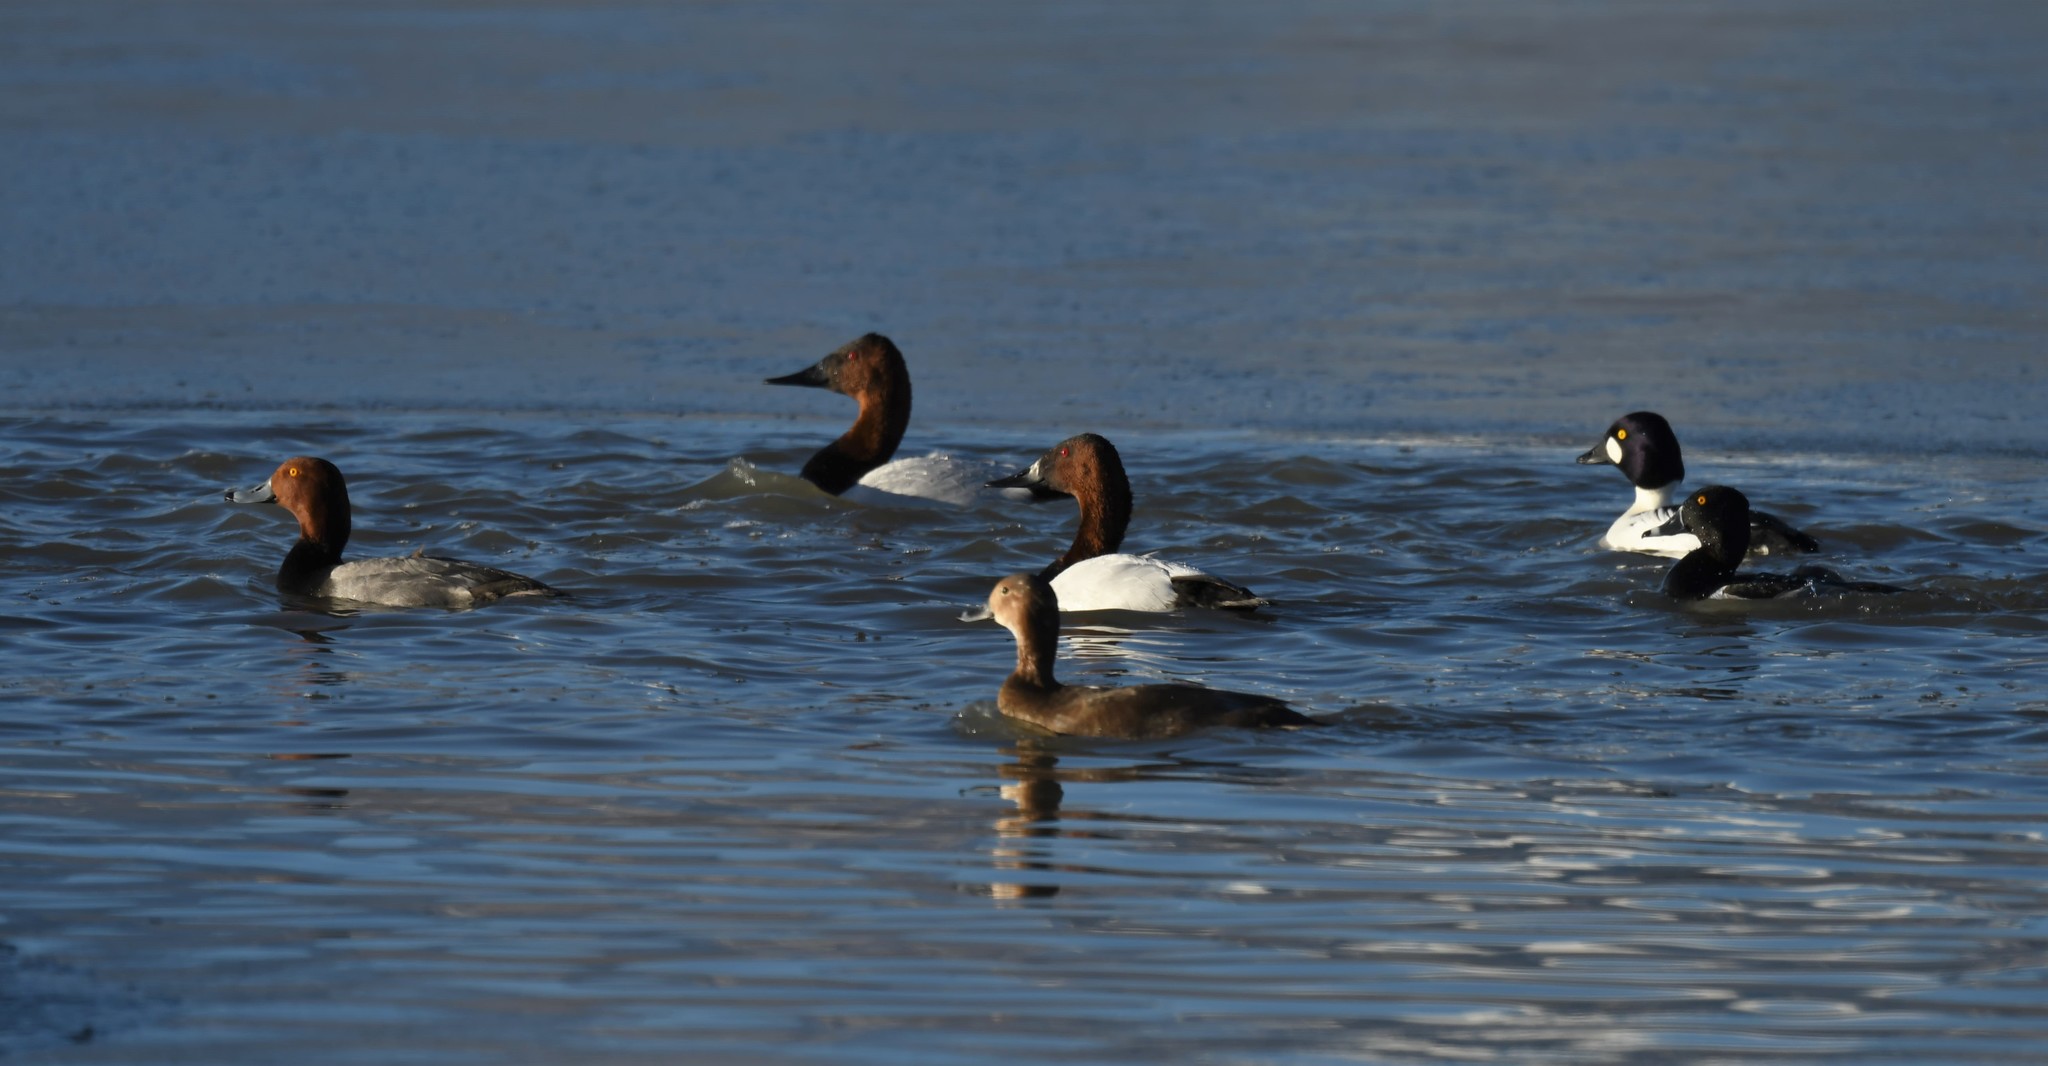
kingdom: Animalia
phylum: Chordata
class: Aves
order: Anseriformes
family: Anatidae
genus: Aythya
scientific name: Aythya valisineria
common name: Canvasback
